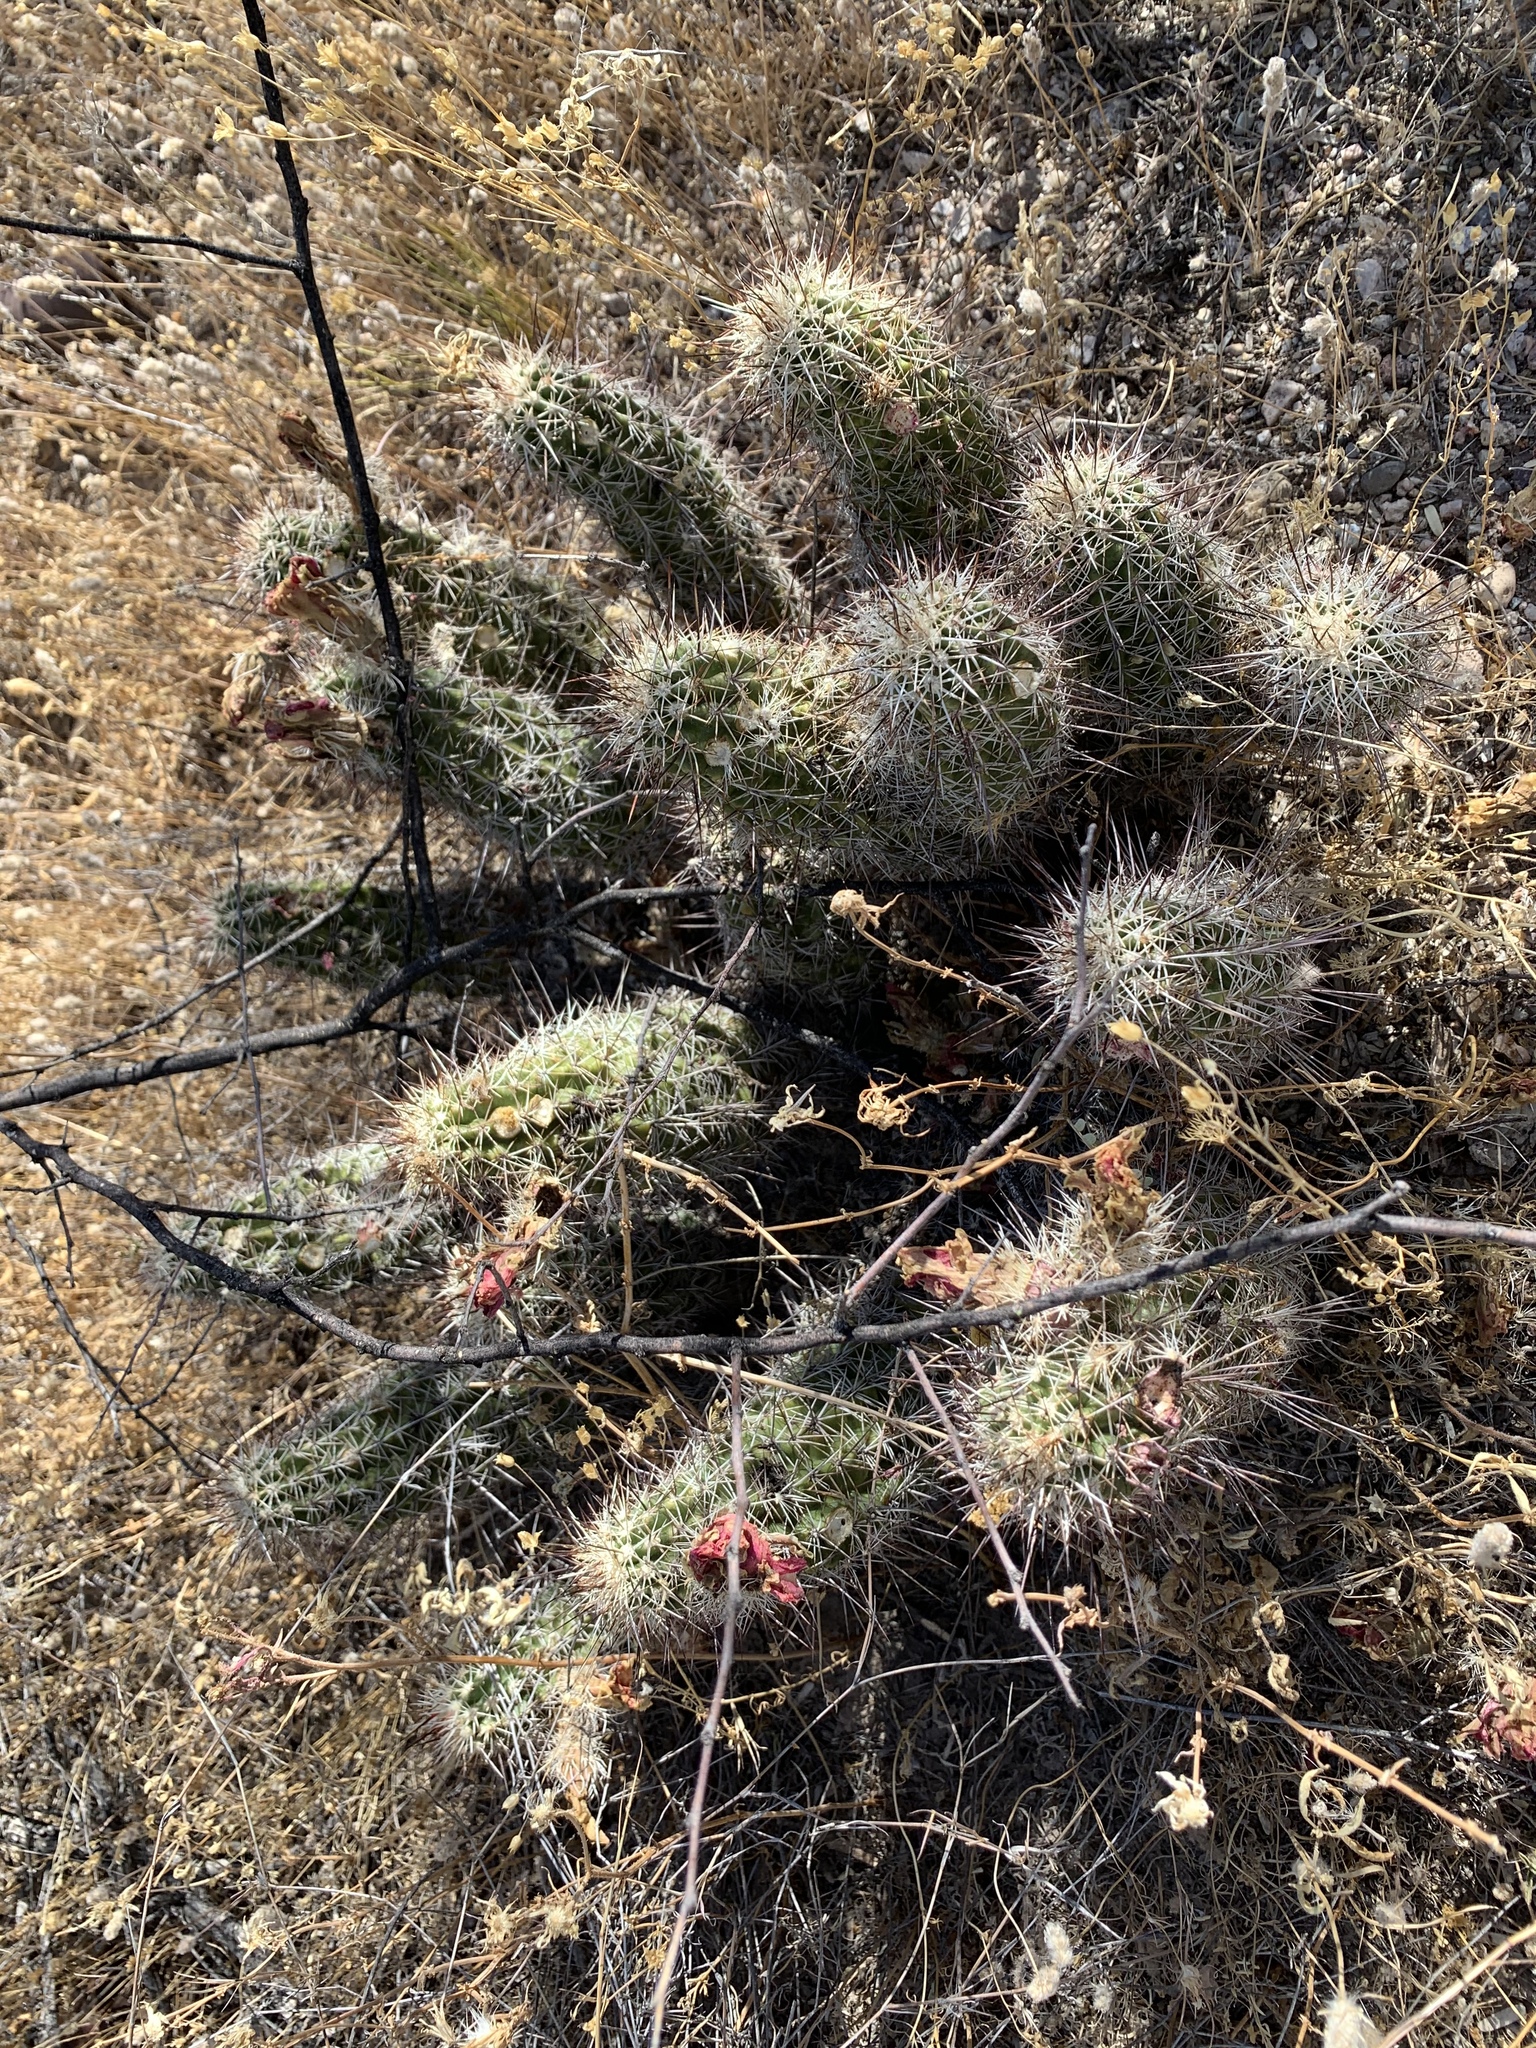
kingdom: Plantae
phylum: Tracheophyta
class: Magnoliopsida
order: Caryophyllales
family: Cactaceae
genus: Echinocereus
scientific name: Echinocereus fasciculatus
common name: Bundle hedgehog
